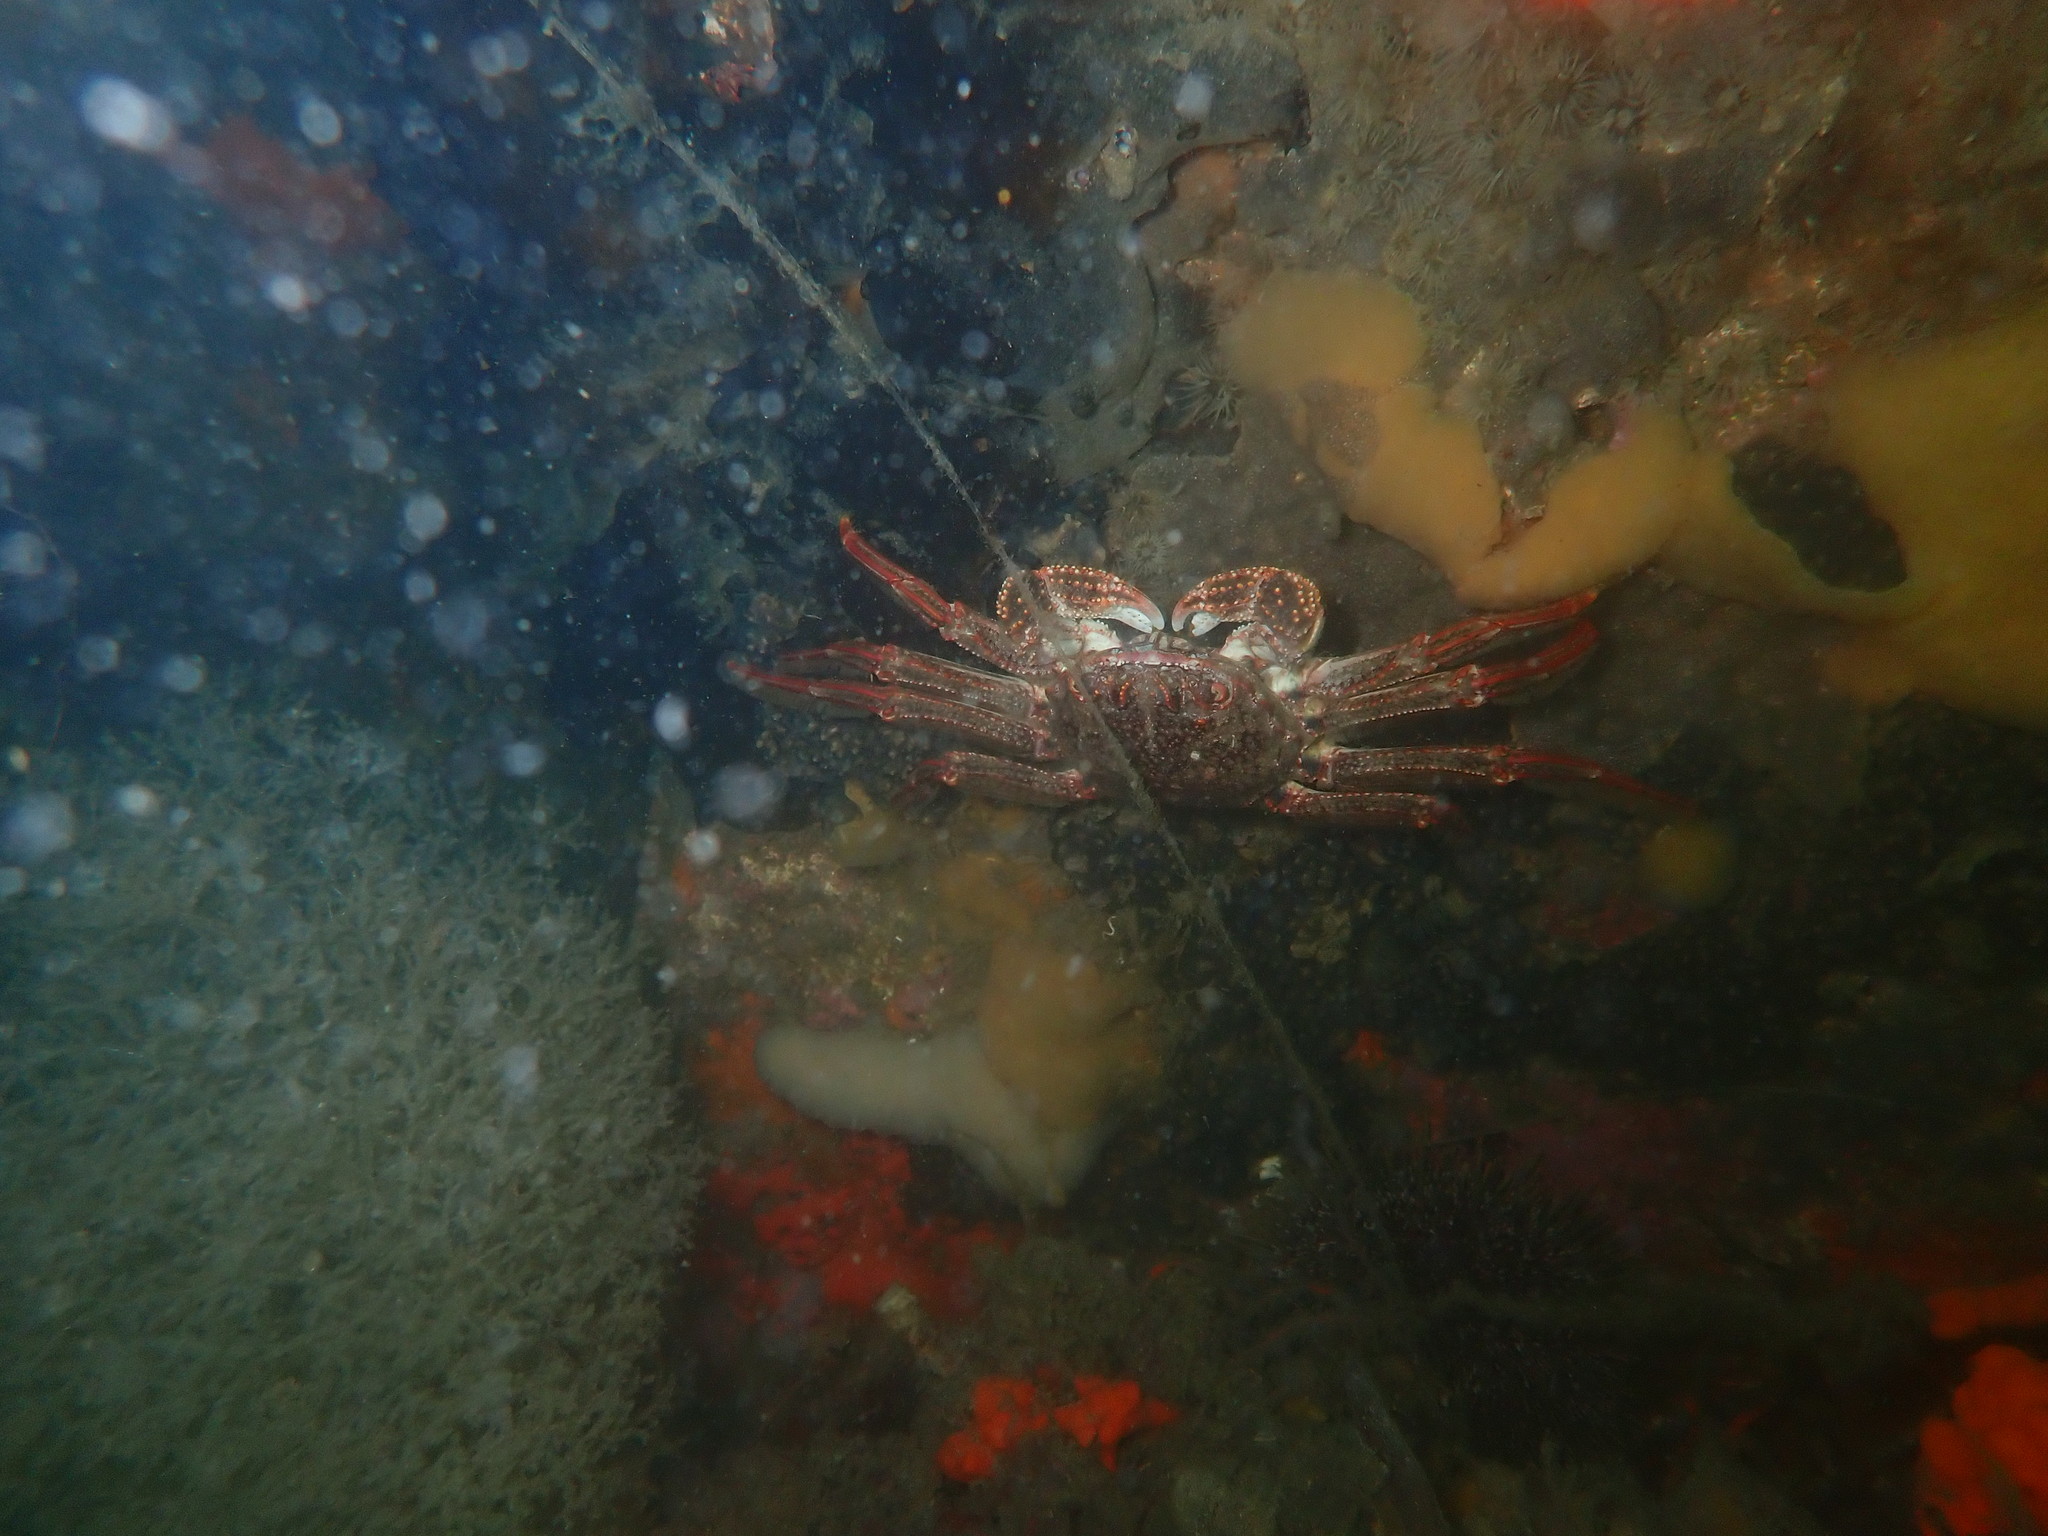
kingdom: Animalia
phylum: Arthropoda
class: Malacostraca
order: Decapoda
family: Plagusiidae
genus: Guinusia
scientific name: Guinusia chabrus
